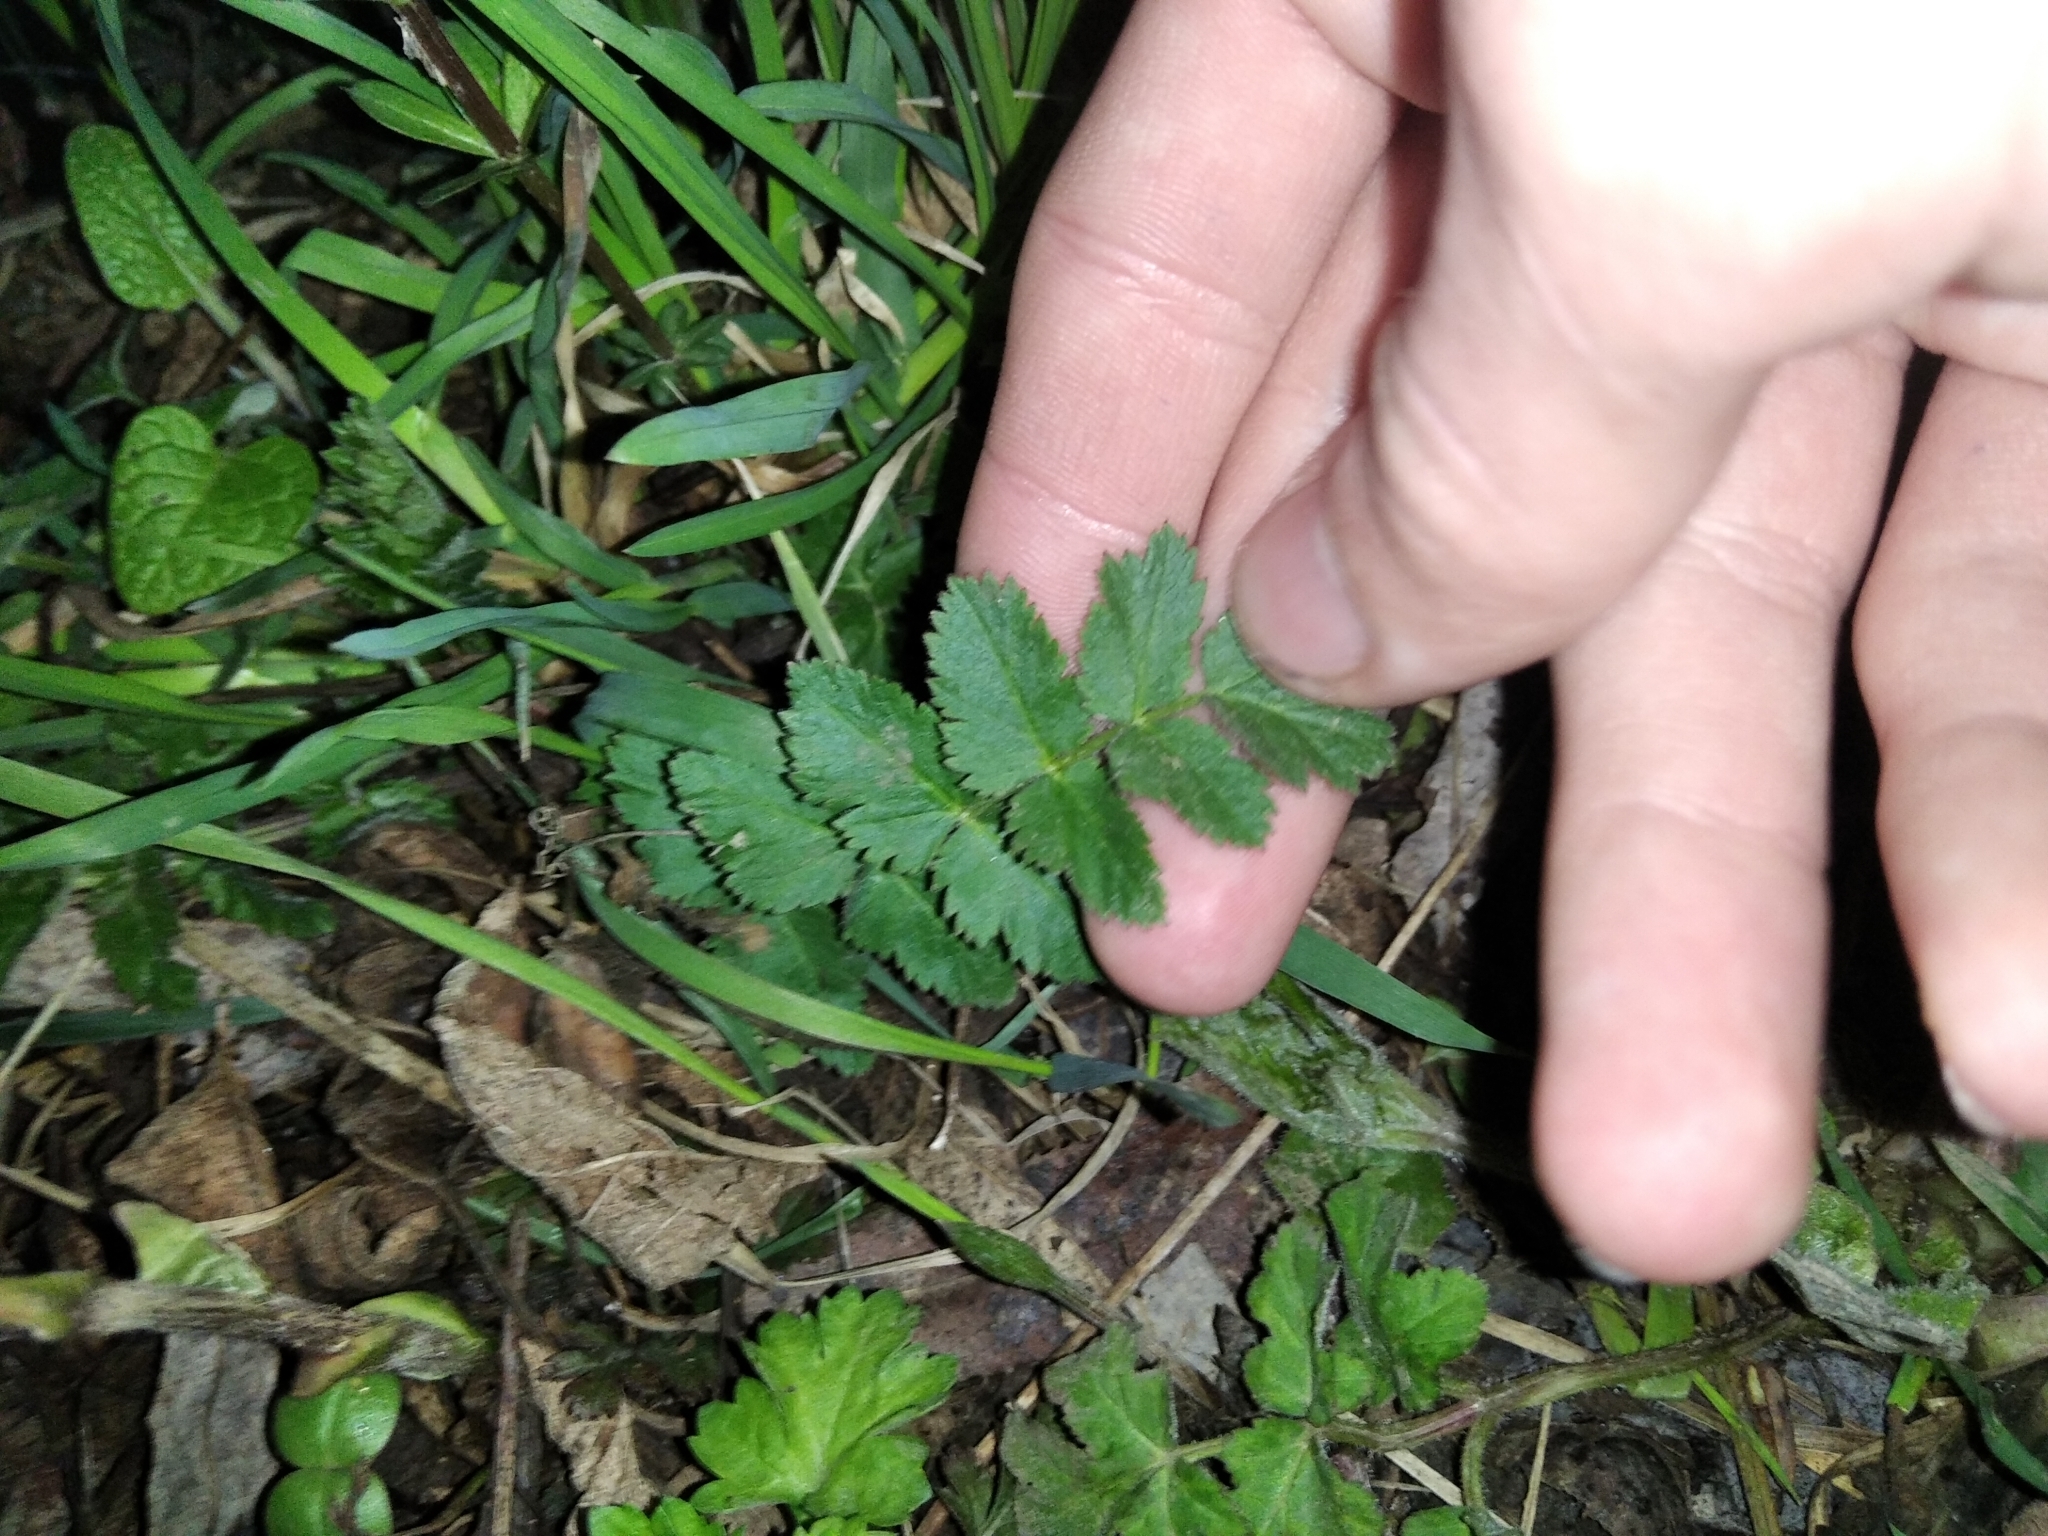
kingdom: Plantae
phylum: Tracheophyta
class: Magnoliopsida
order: Apiales
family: Apiaceae
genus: Pimpinella
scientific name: Pimpinella saxifraga
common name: Burnet-saxifrage
